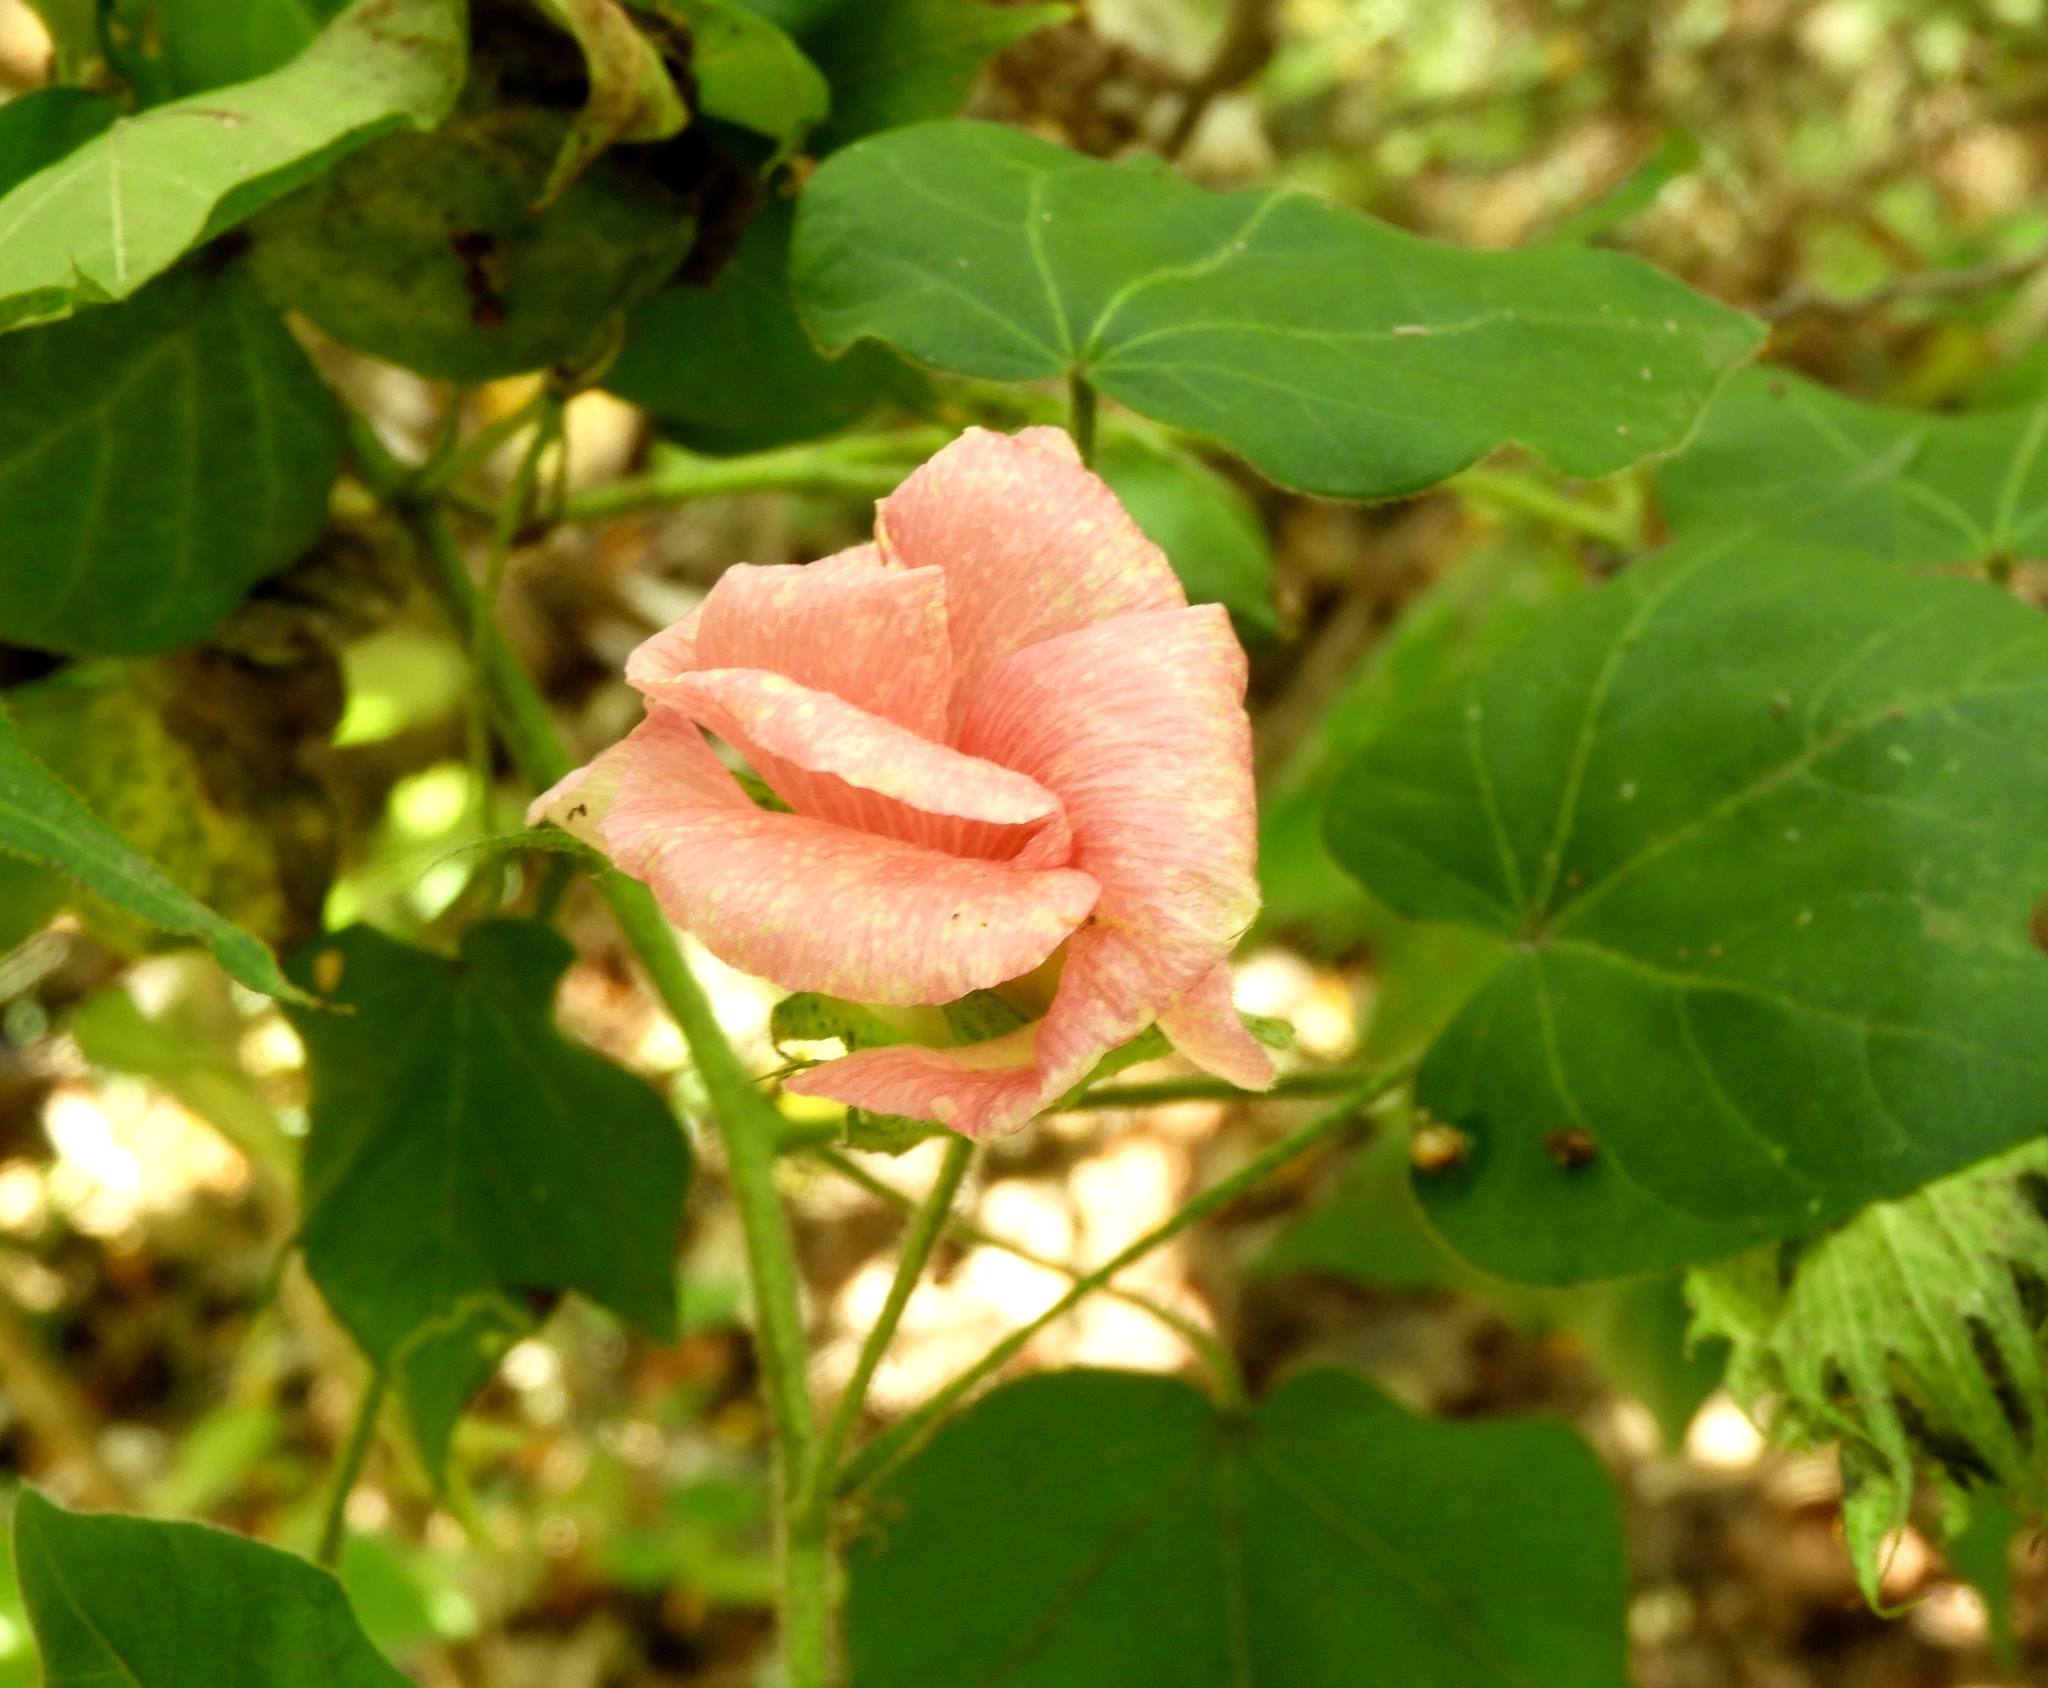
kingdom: Plantae
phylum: Tracheophyta
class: Magnoliopsida
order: Malvales
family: Malvaceae
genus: Gossypium
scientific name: Gossypium hirsutum
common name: Cotton
